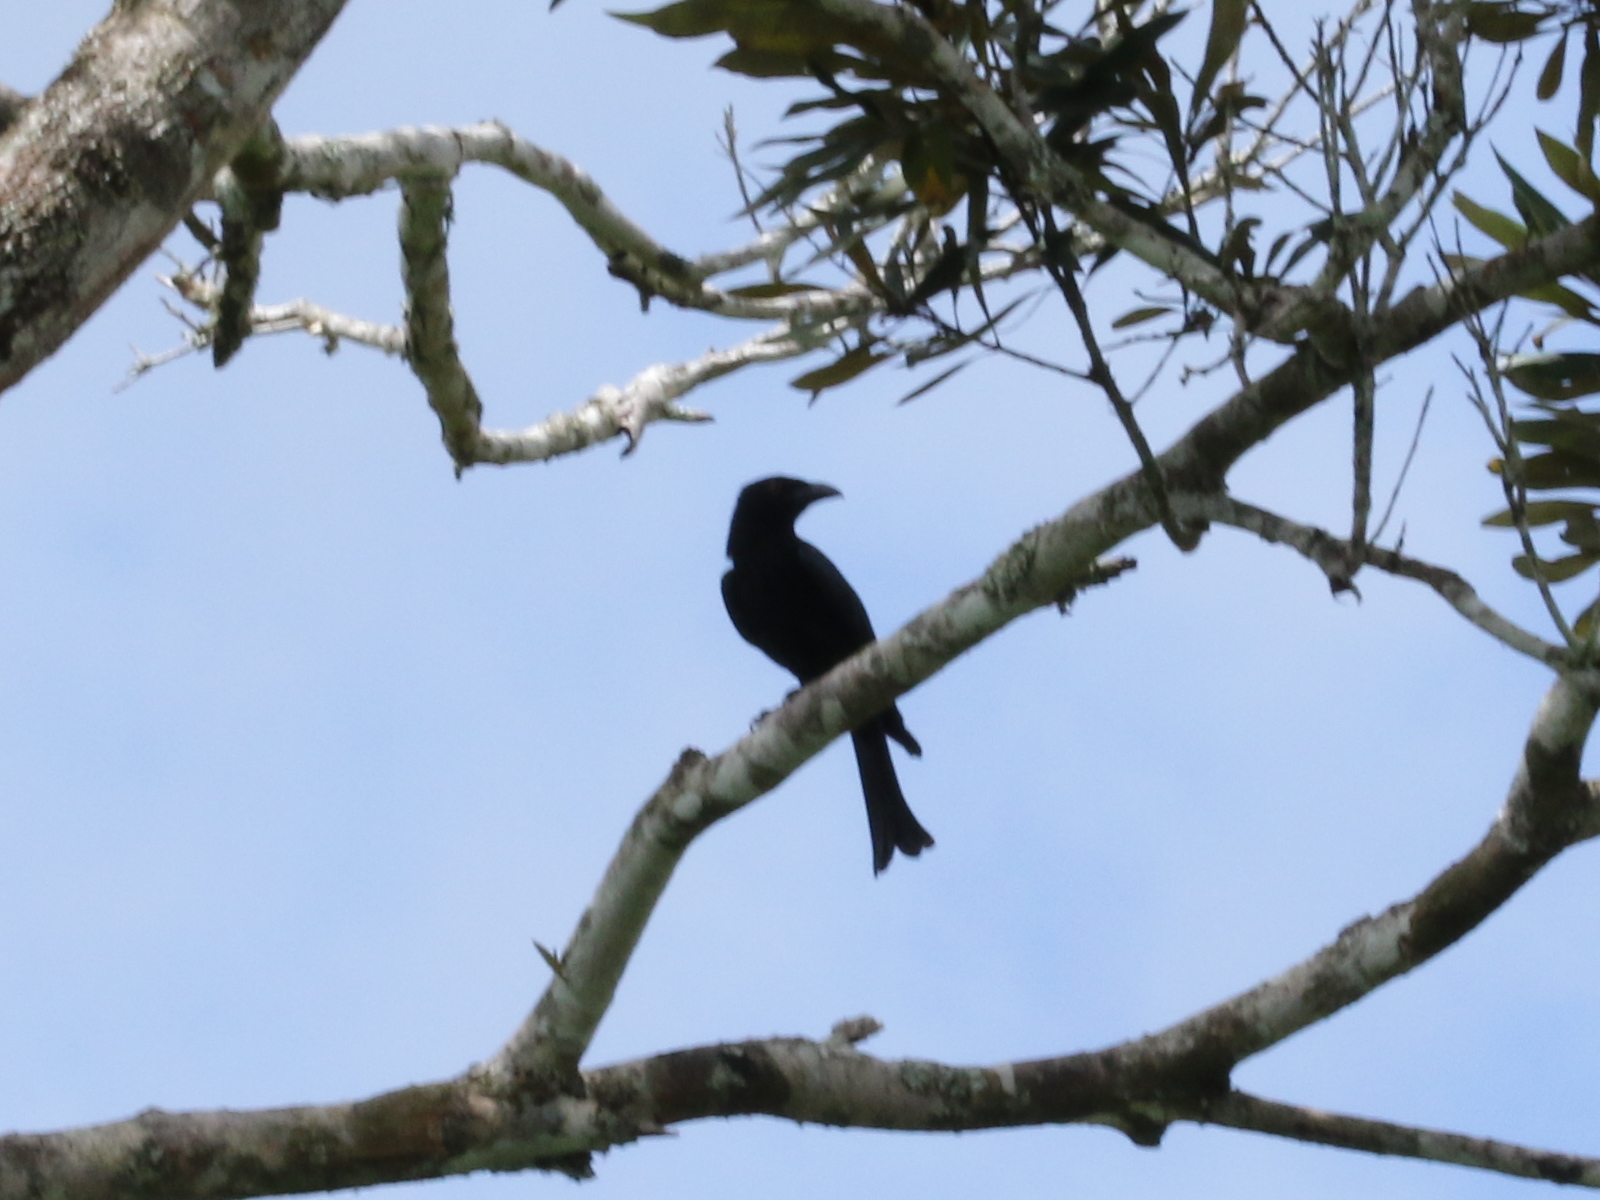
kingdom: Animalia
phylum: Chordata
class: Aves
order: Passeriformes
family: Dicruridae
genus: Dicrurus
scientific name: Dicrurus bracteatus
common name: Spangled drongo
